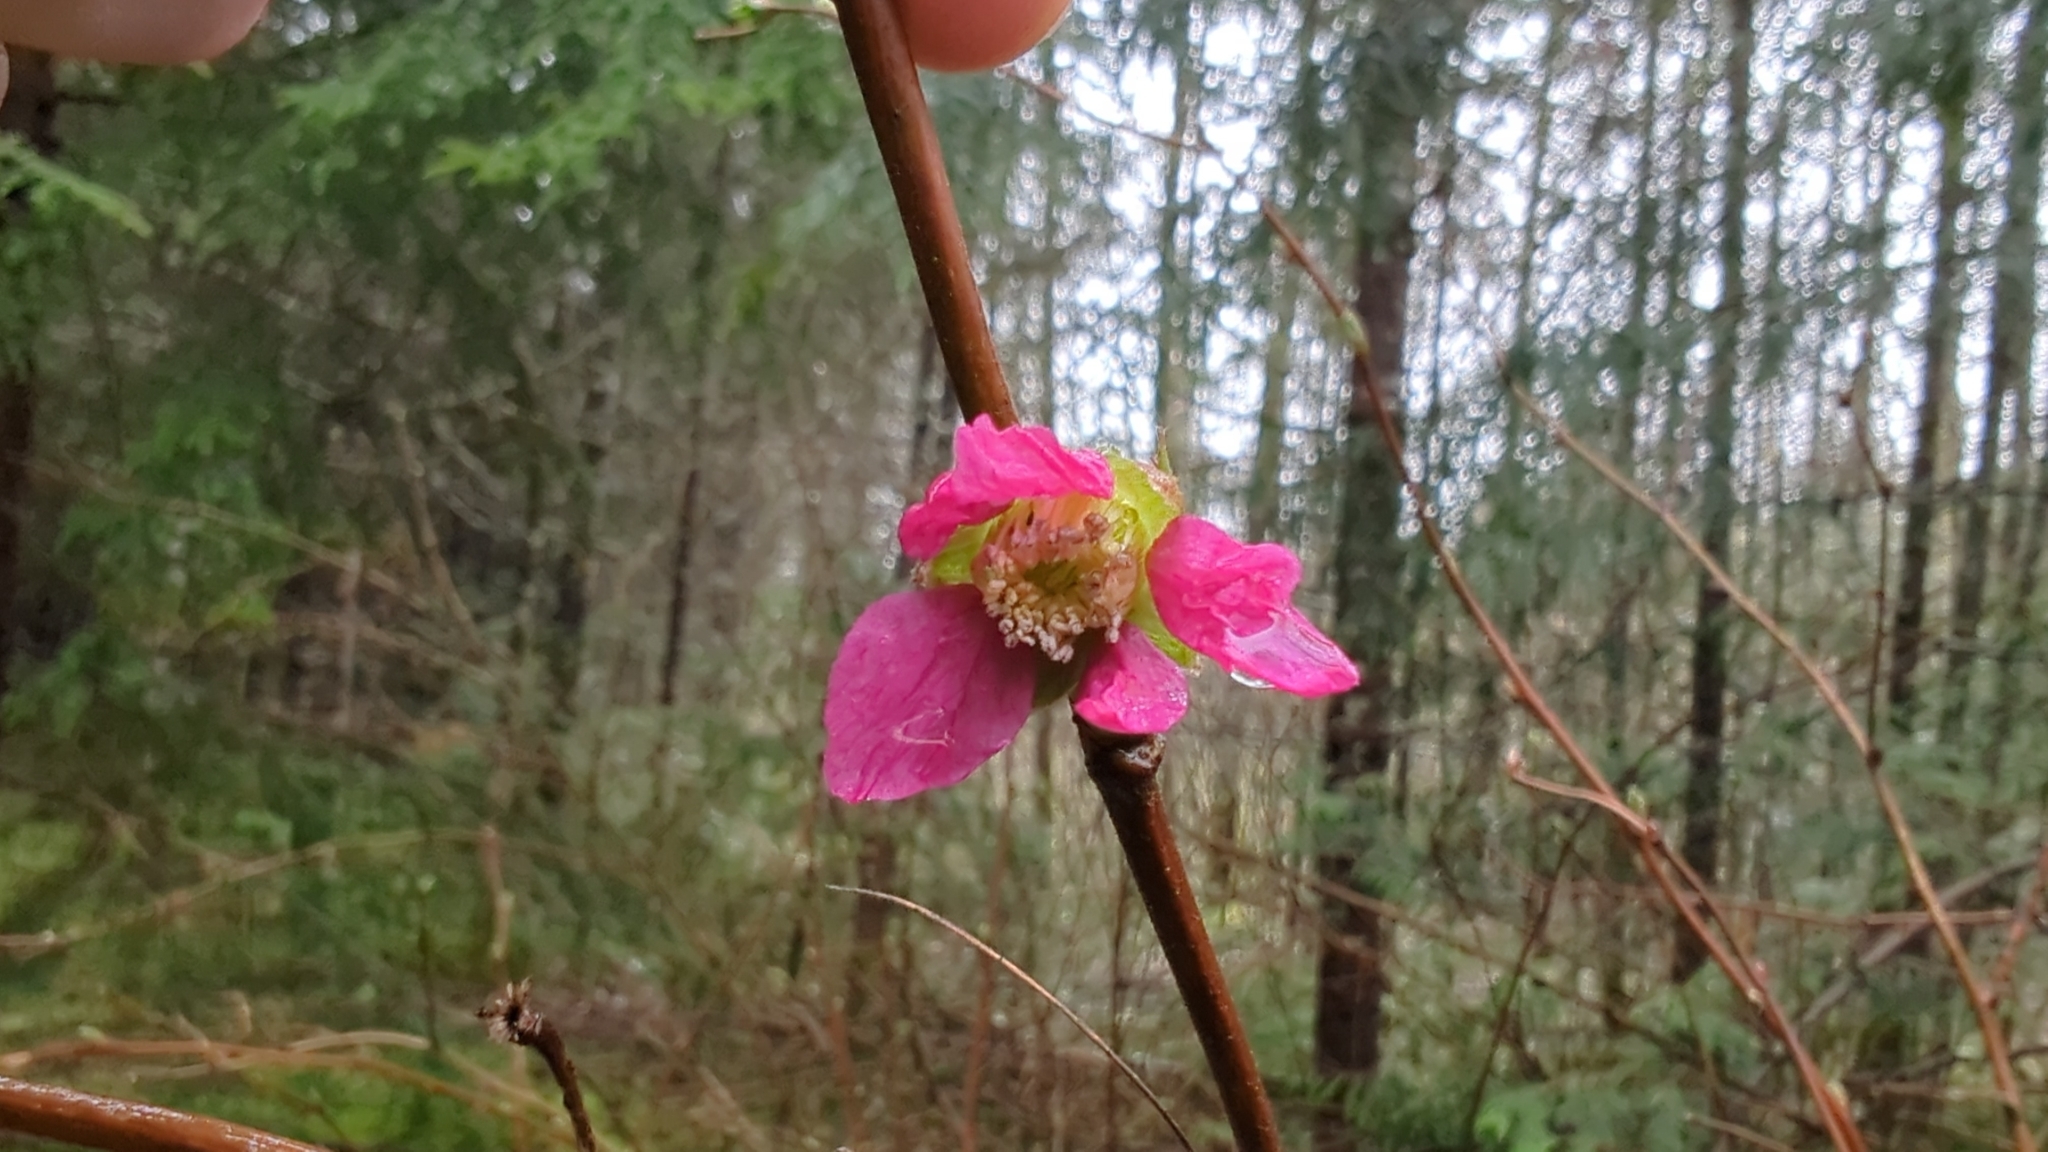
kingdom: Plantae
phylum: Tracheophyta
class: Magnoliopsida
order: Rosales
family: Rosaceae
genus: Rubus
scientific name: Rubus spectabilis
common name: Salmonberry
